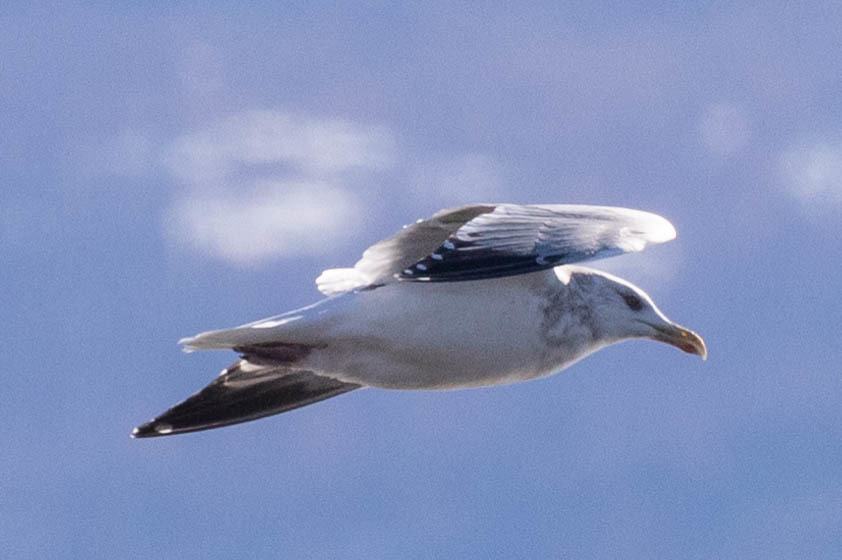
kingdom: Animalia
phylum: Chordata
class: Aves
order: Charadriiformes
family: Laridae
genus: Larus
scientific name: Larus argentatus
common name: Herring gull
